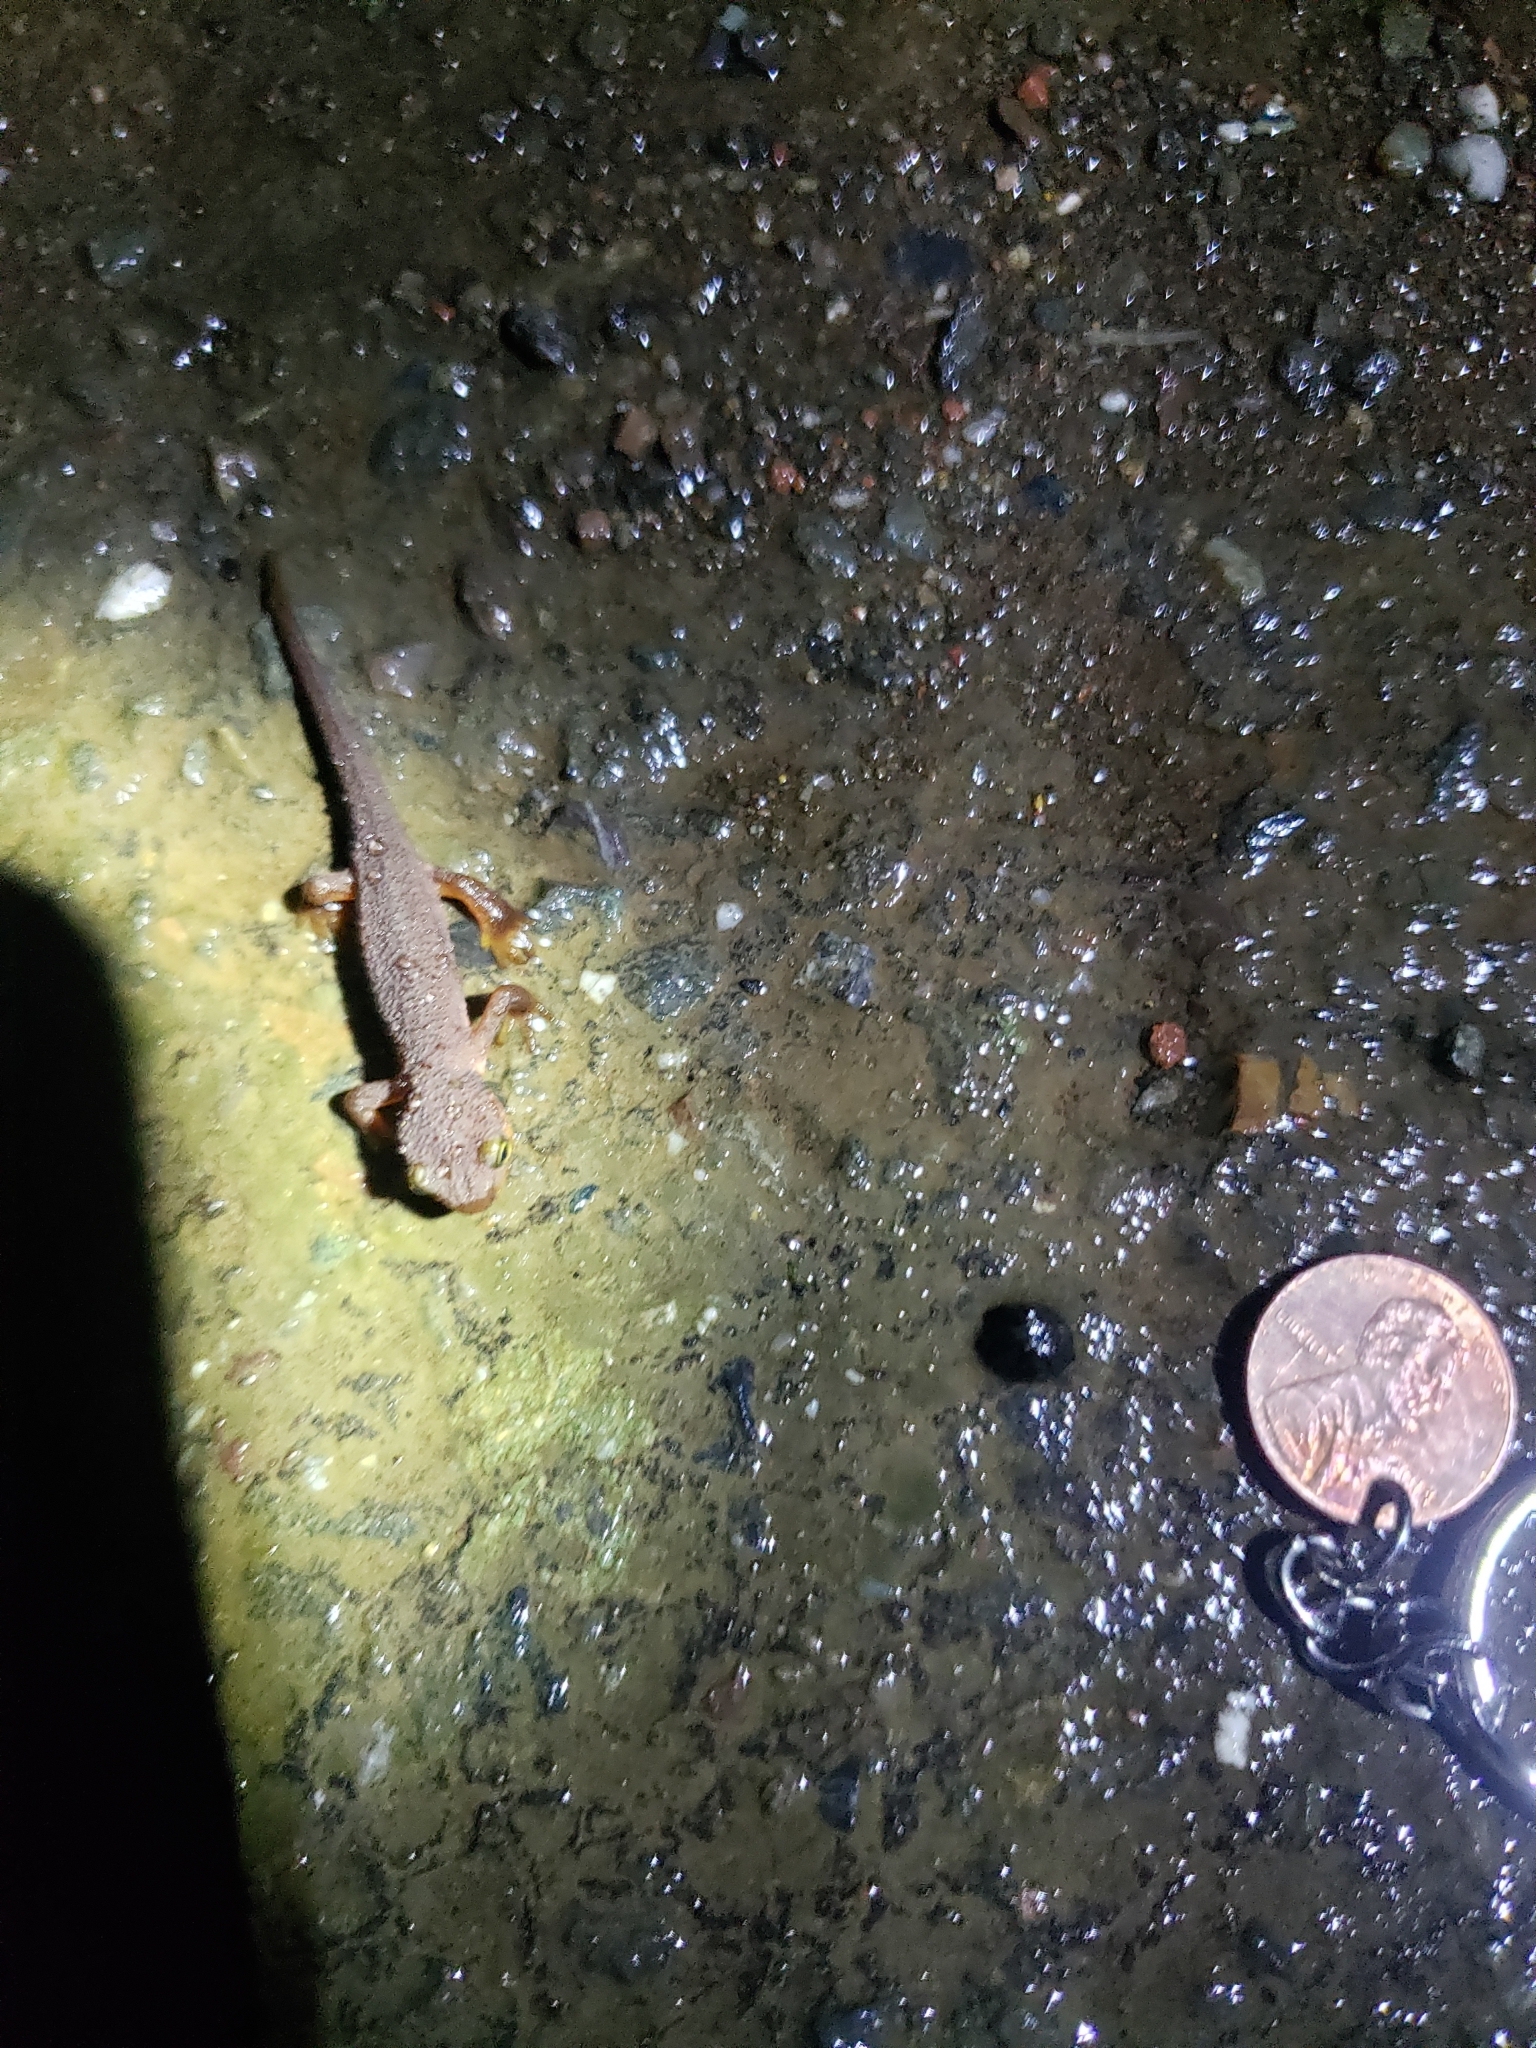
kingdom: Animalia
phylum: Chordata
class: Amphibia
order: Caudata
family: Salamandridae
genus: Taricha
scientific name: Taricha torosa
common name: California newt
